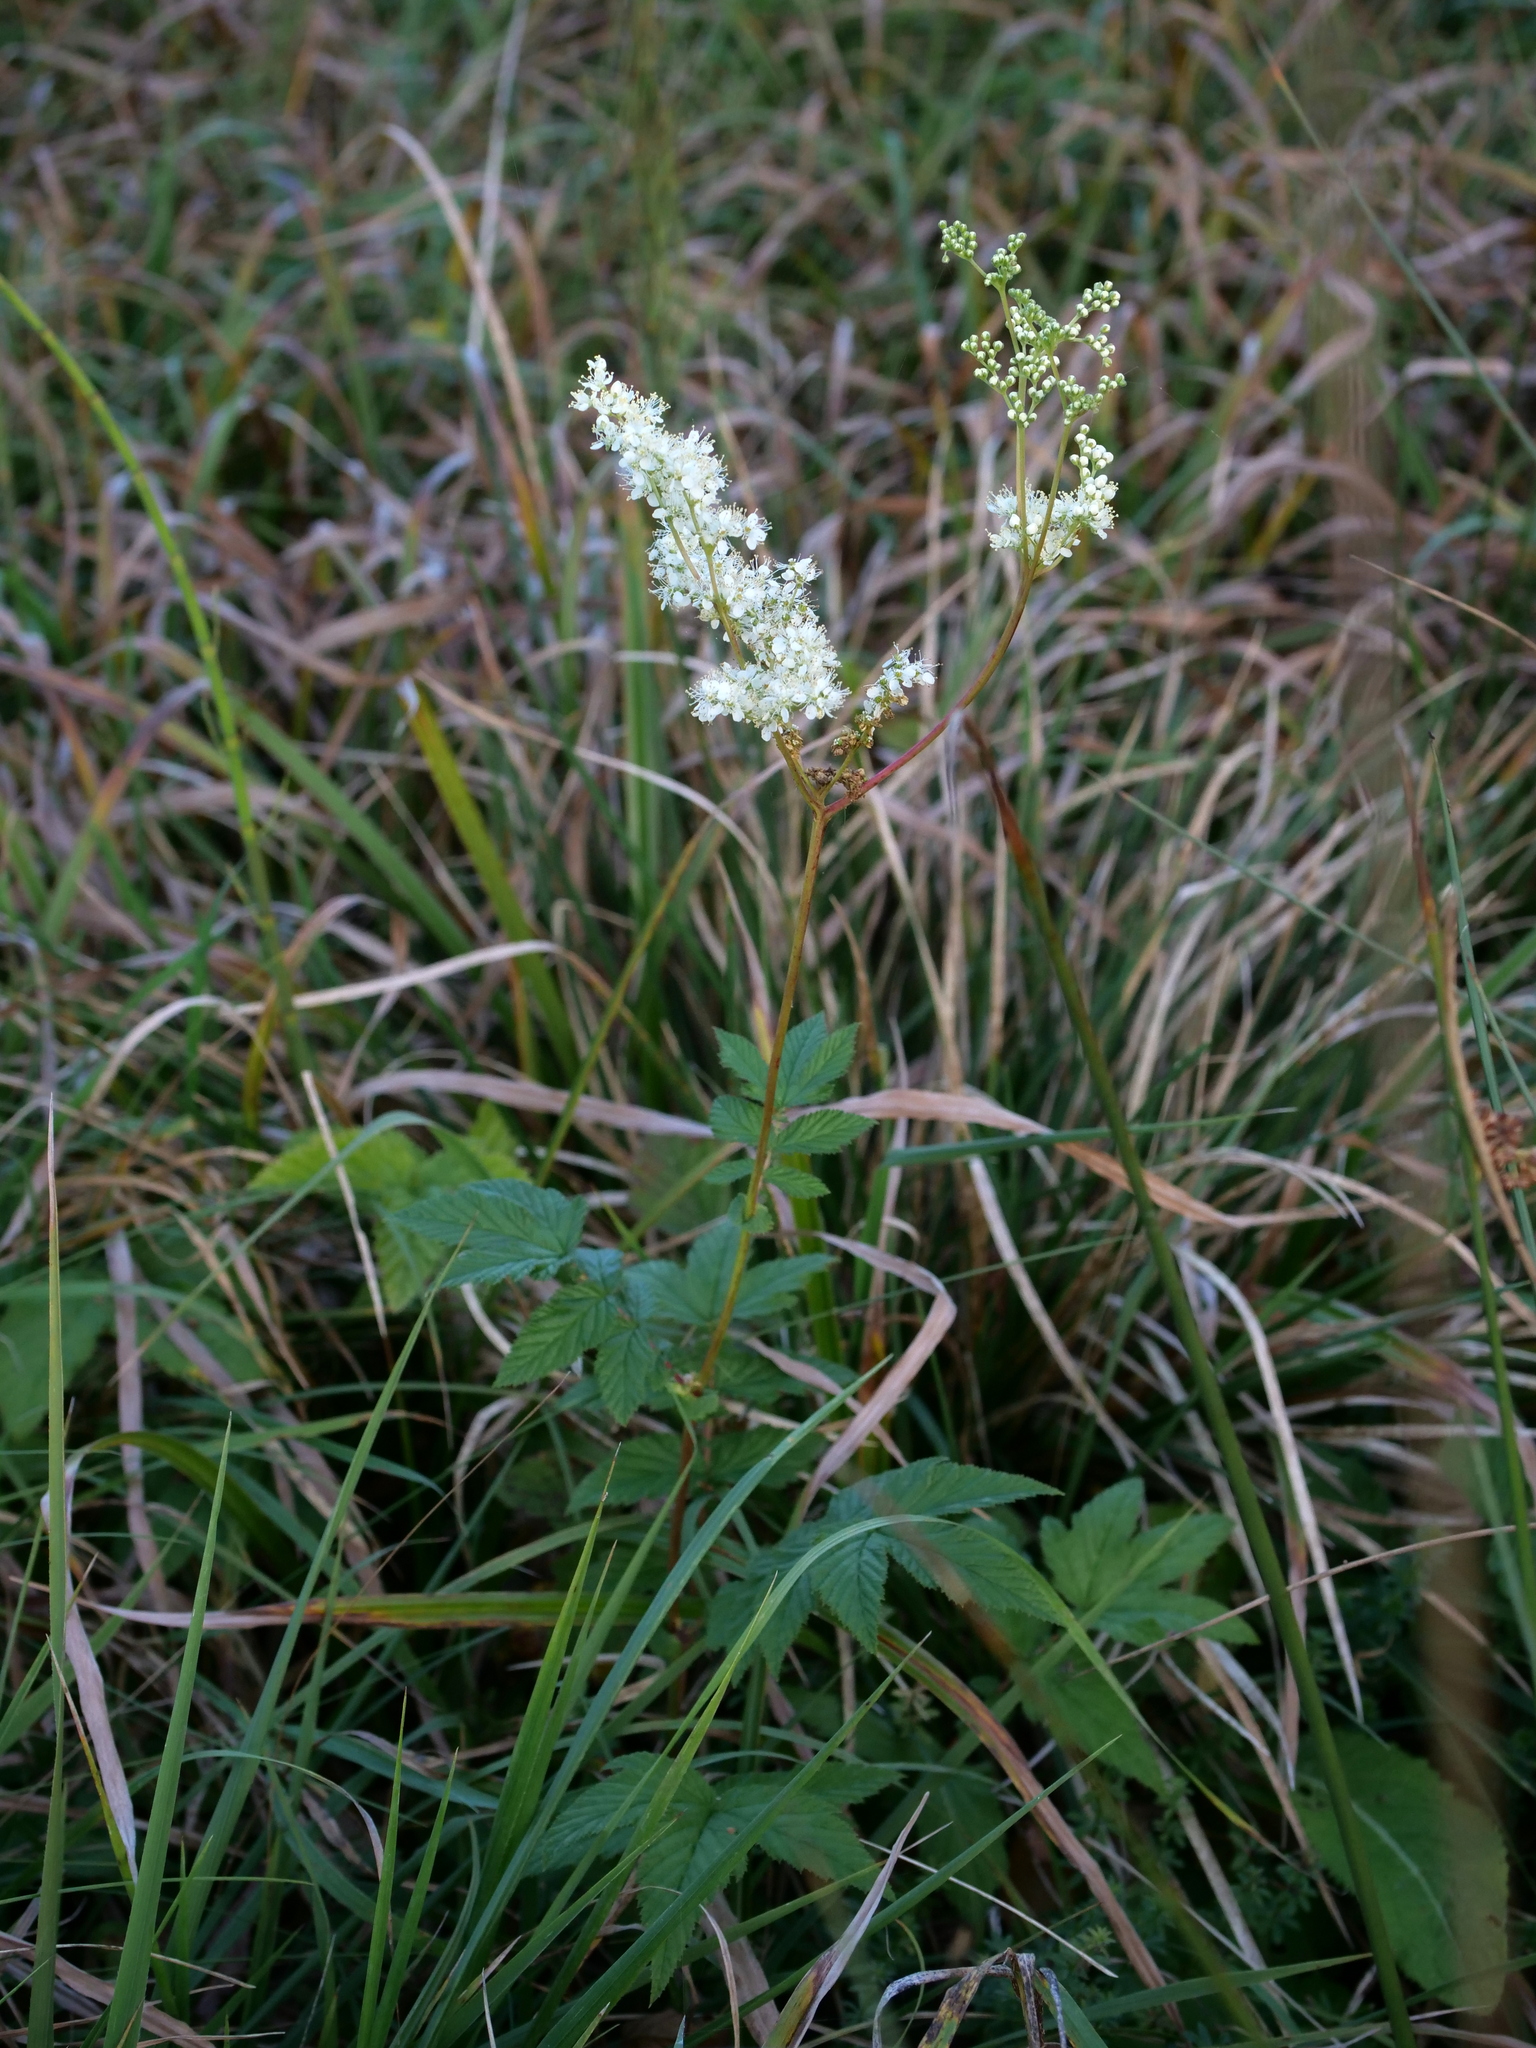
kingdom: Plantae
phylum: Tracheophyta
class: Magnoliopsida
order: Rosales
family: Rosaceae
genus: Filipendula
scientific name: Filipendula ulmaria
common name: Meadowsweet
